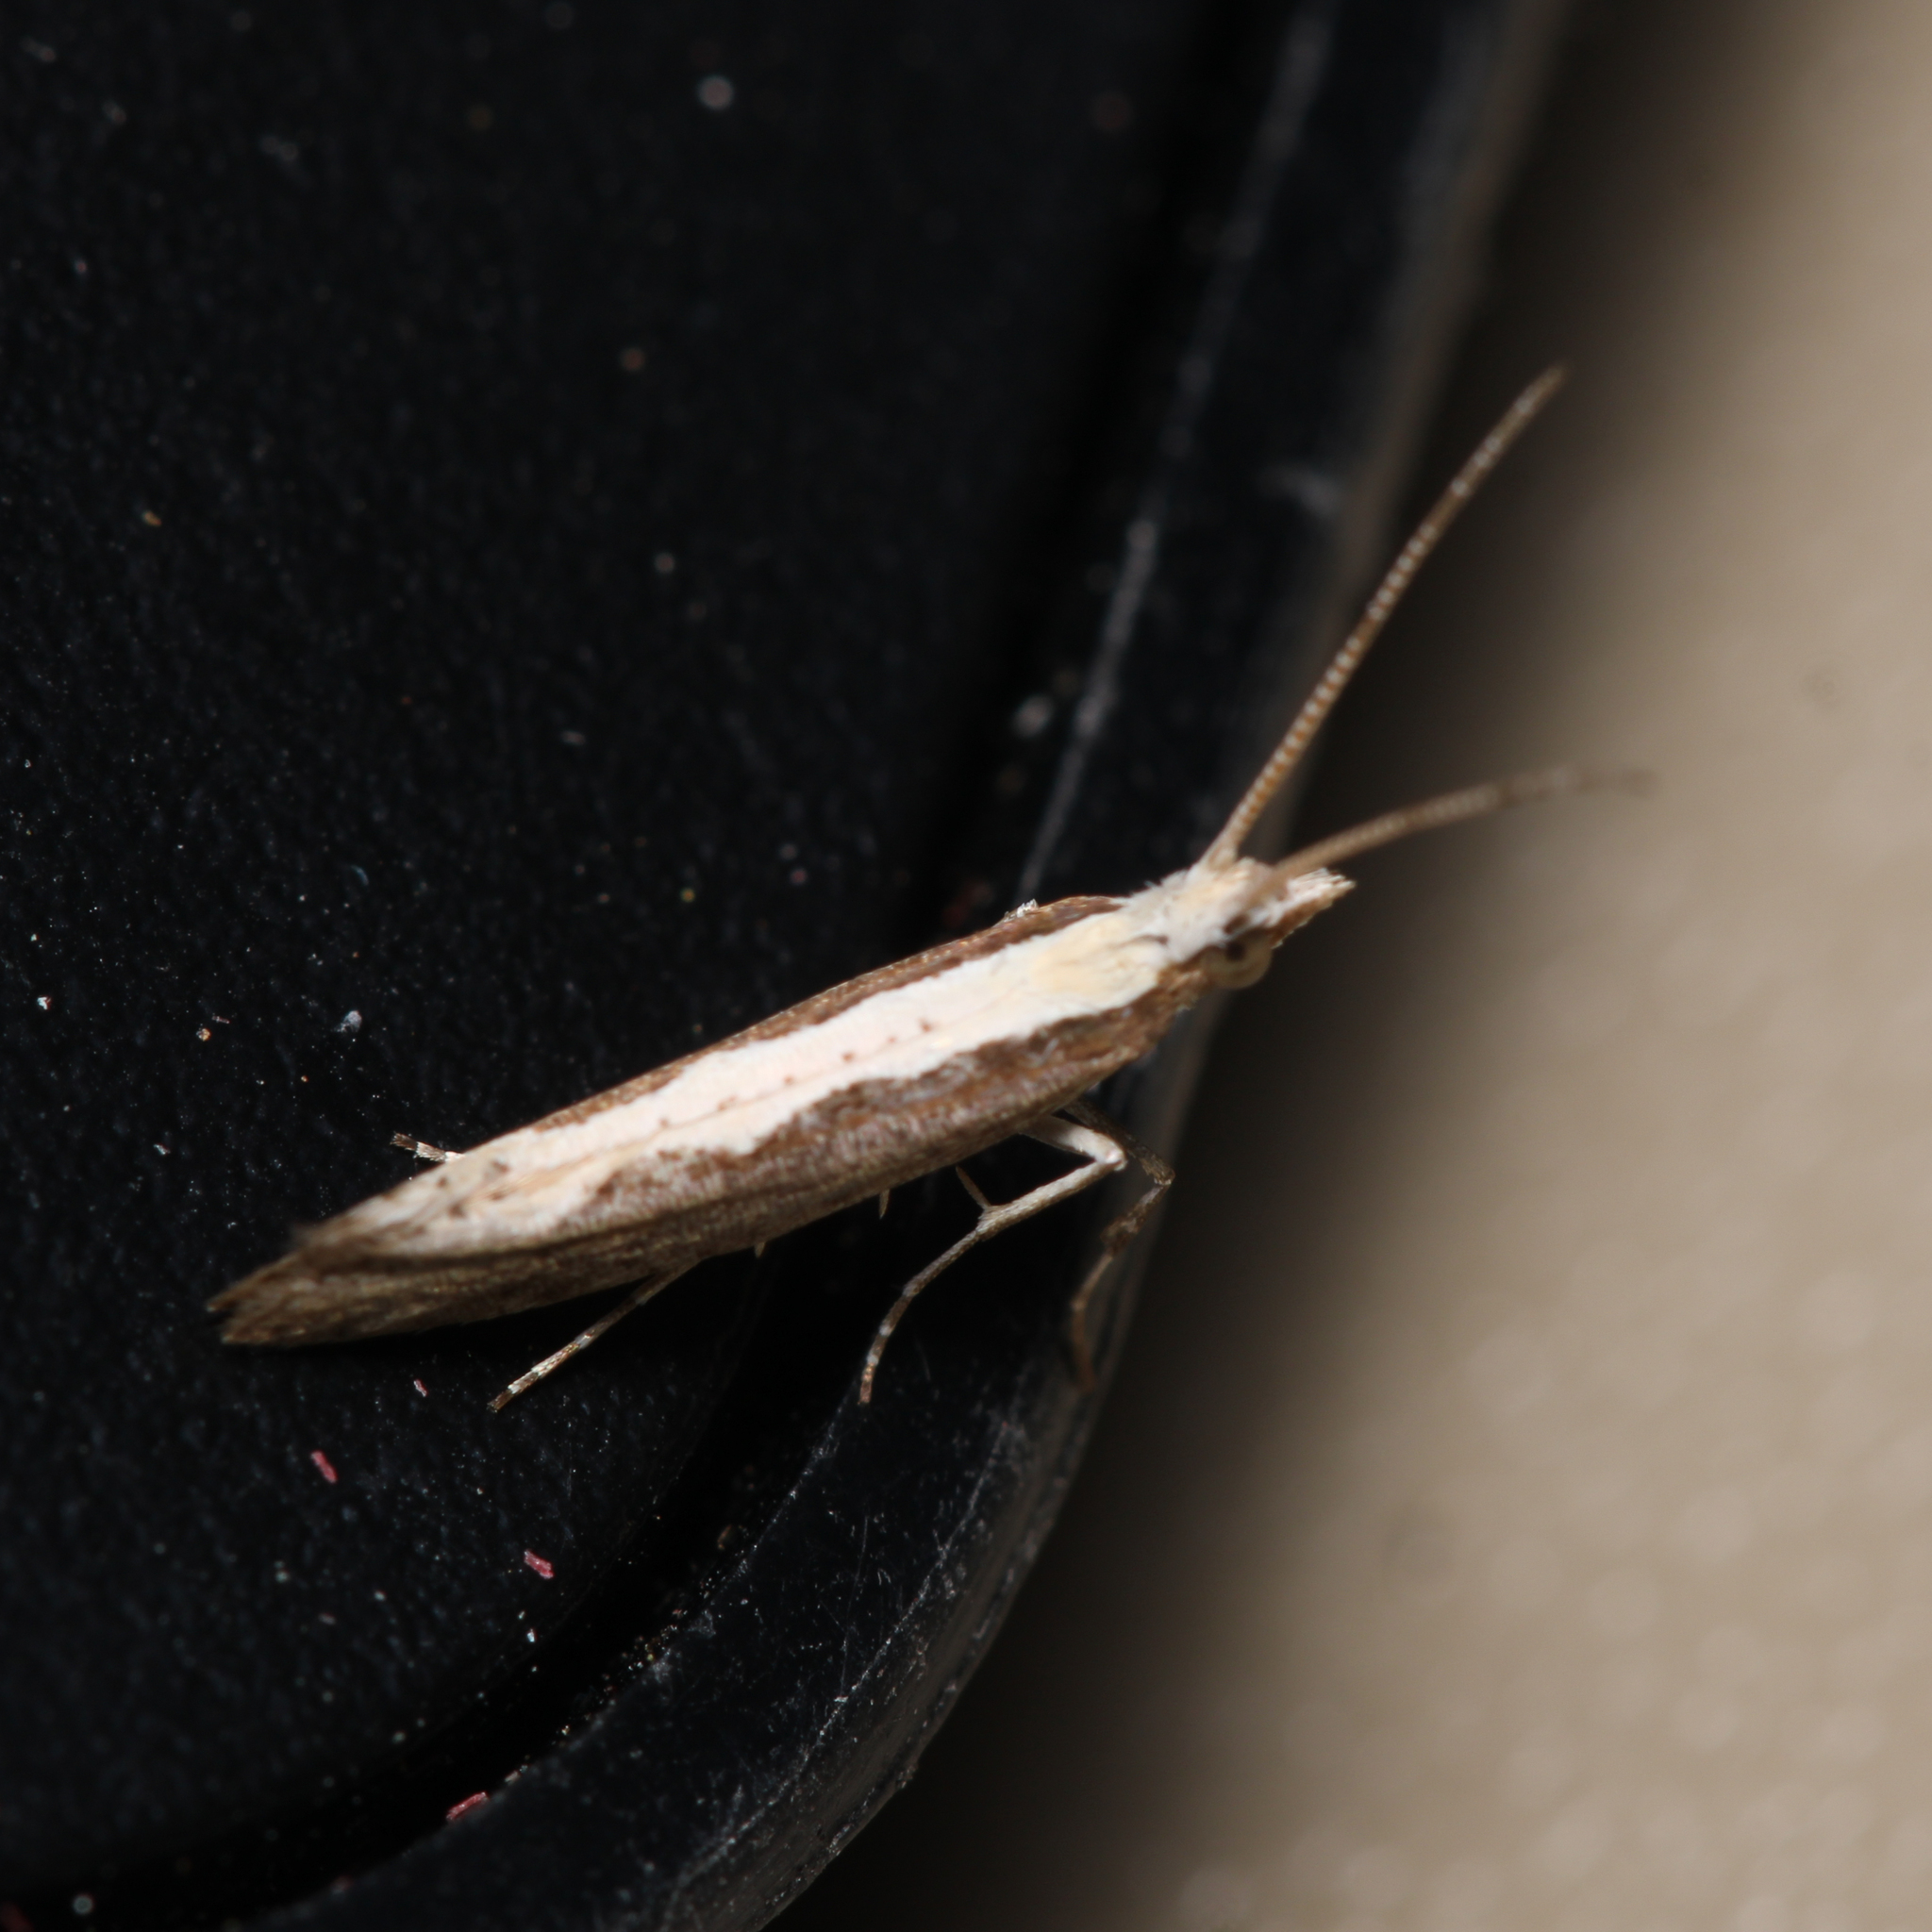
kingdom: Animalia
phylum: Arthropoda
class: Insecta
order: Lepidoptera
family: Plutellidae
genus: Plutella
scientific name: Plutella xylostella
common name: Diamond-back moth
